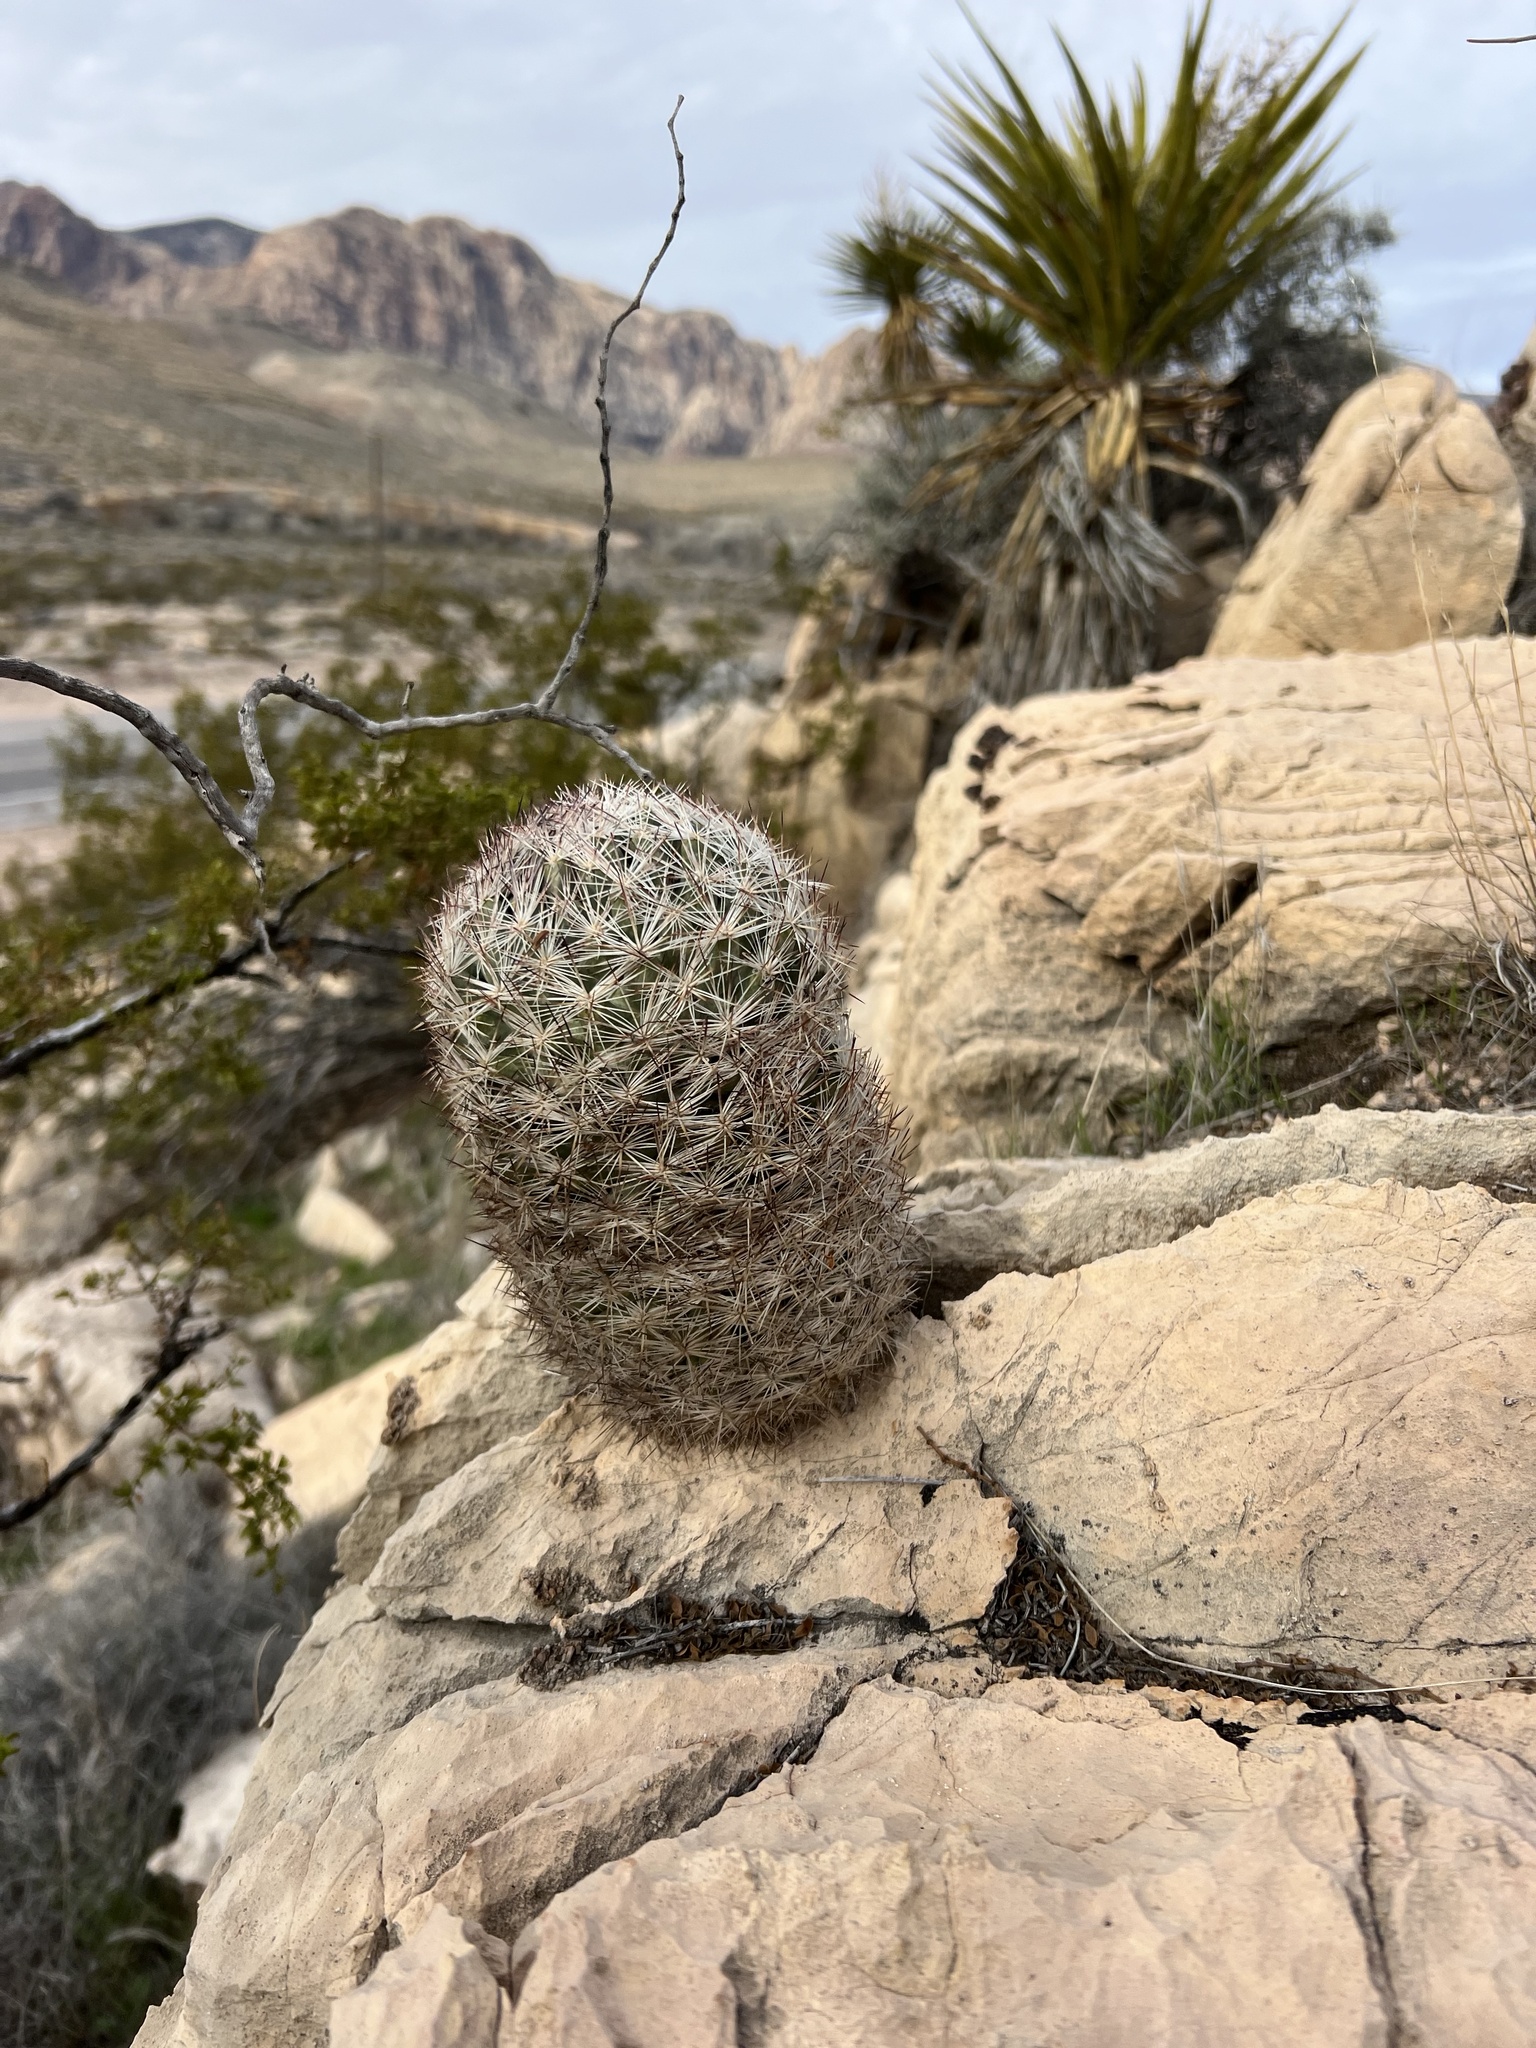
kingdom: Plantae
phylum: Tracheophyta
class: Magnoliopsida
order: Caryophyllales
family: Cactaceae
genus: Pelecyphora
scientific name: Pelecyphora dasyacantha
